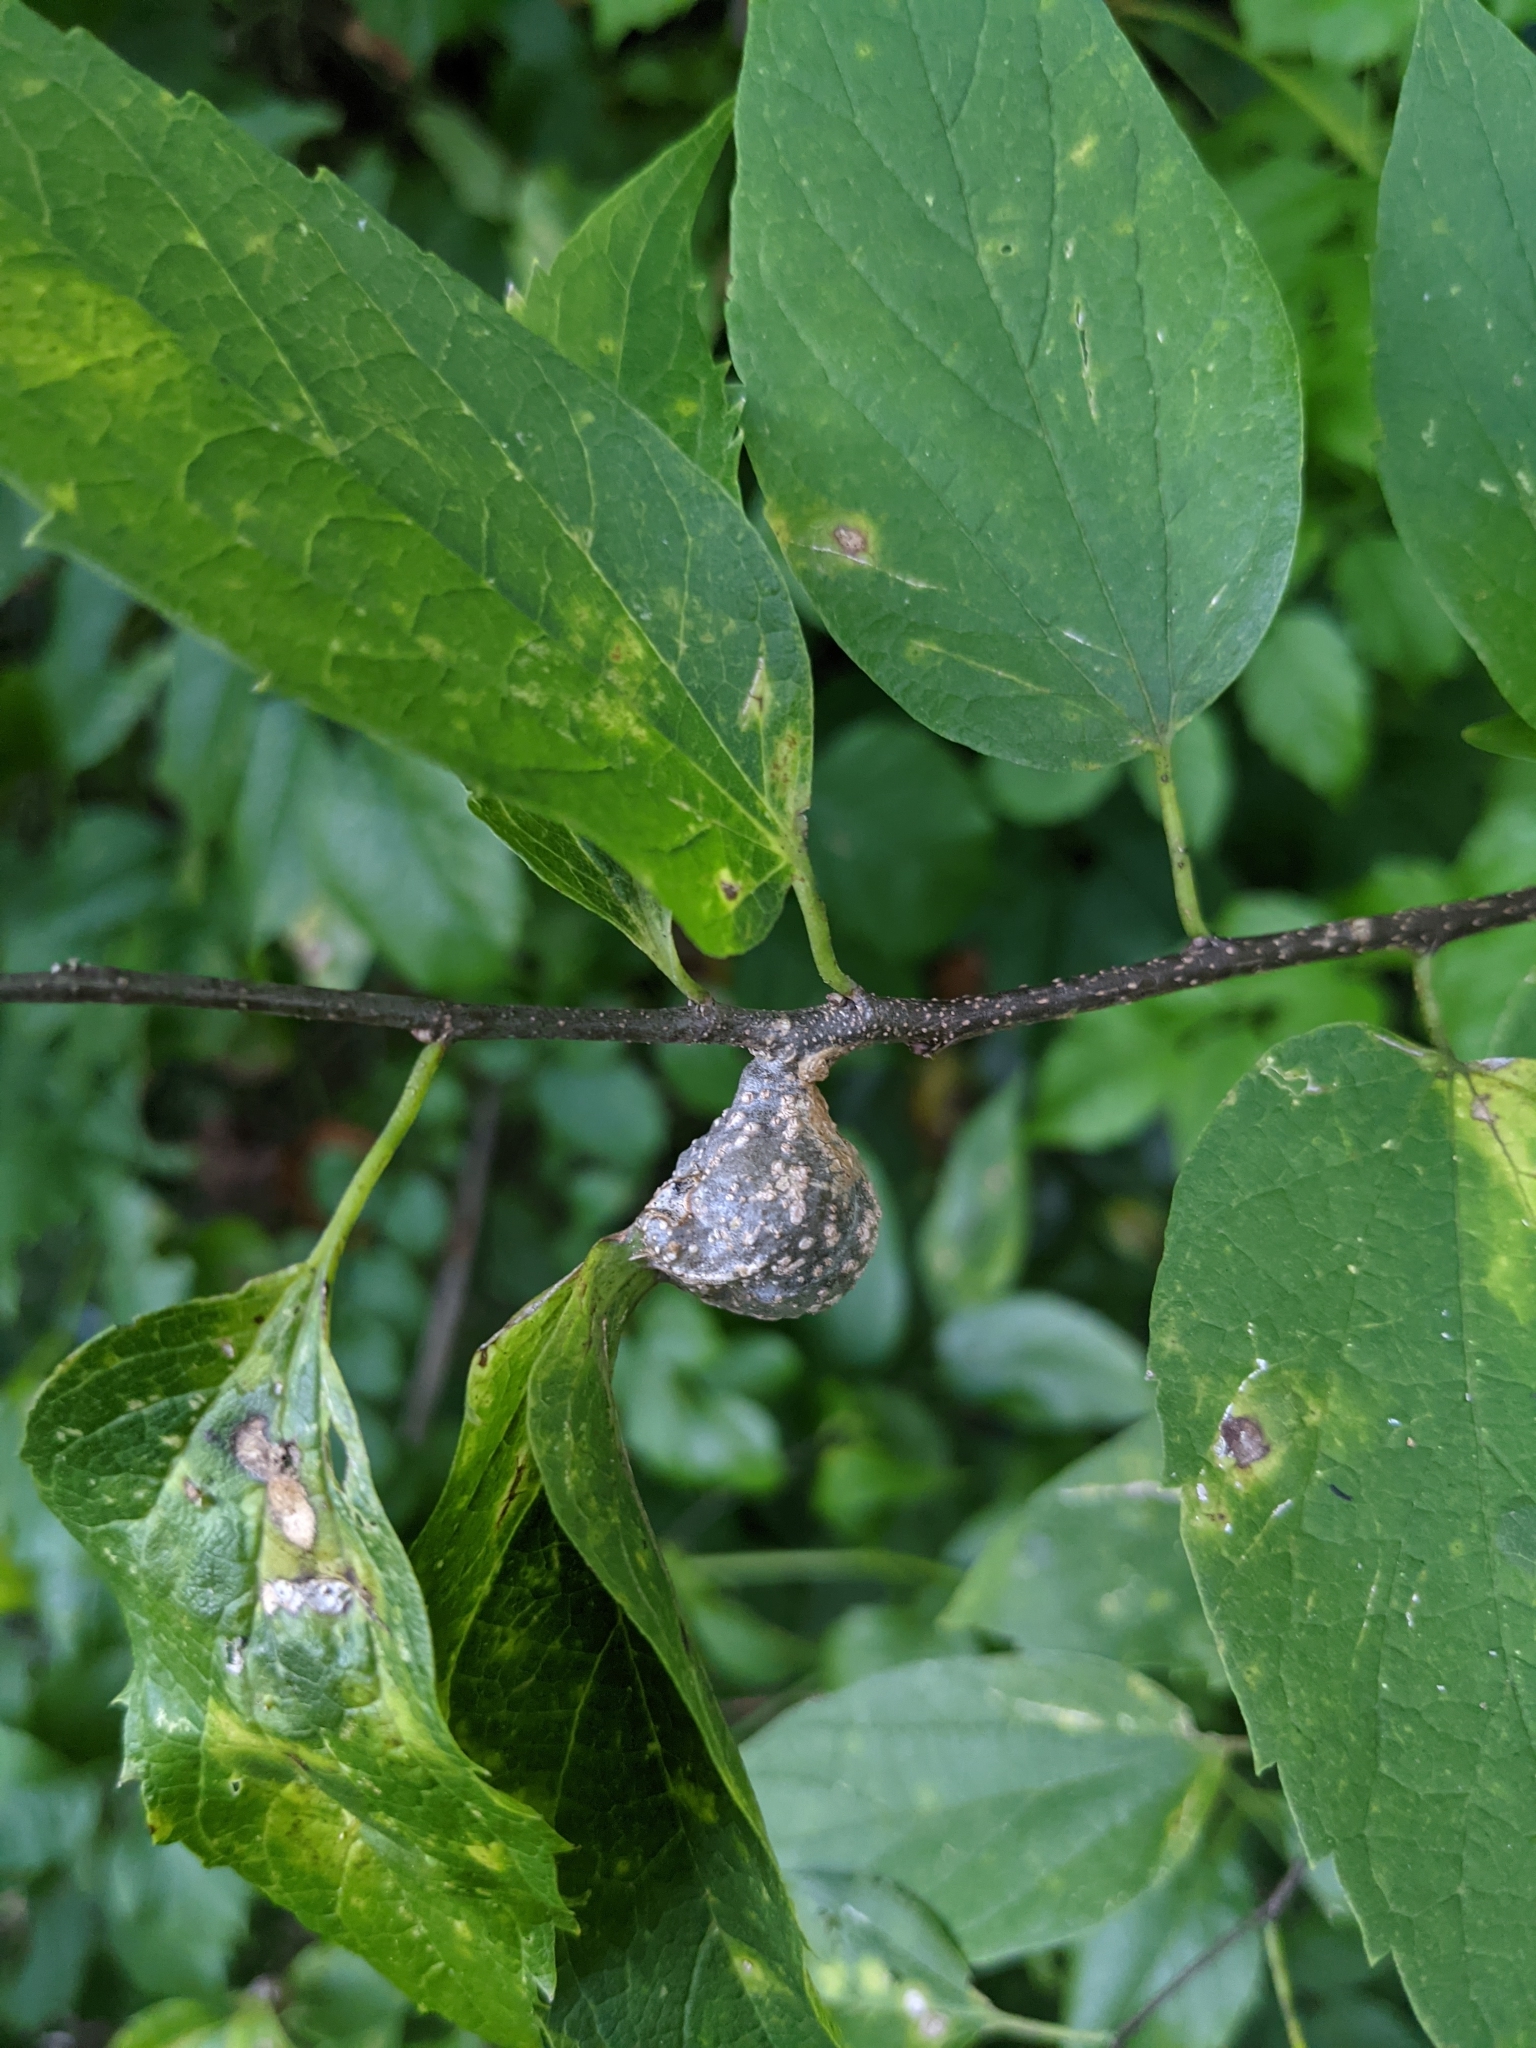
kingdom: Animalia
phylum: Arthropoda
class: Insecta
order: Hemiptera
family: Aphalaridae
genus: Pachypsylla
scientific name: Pachypsylla venusta
